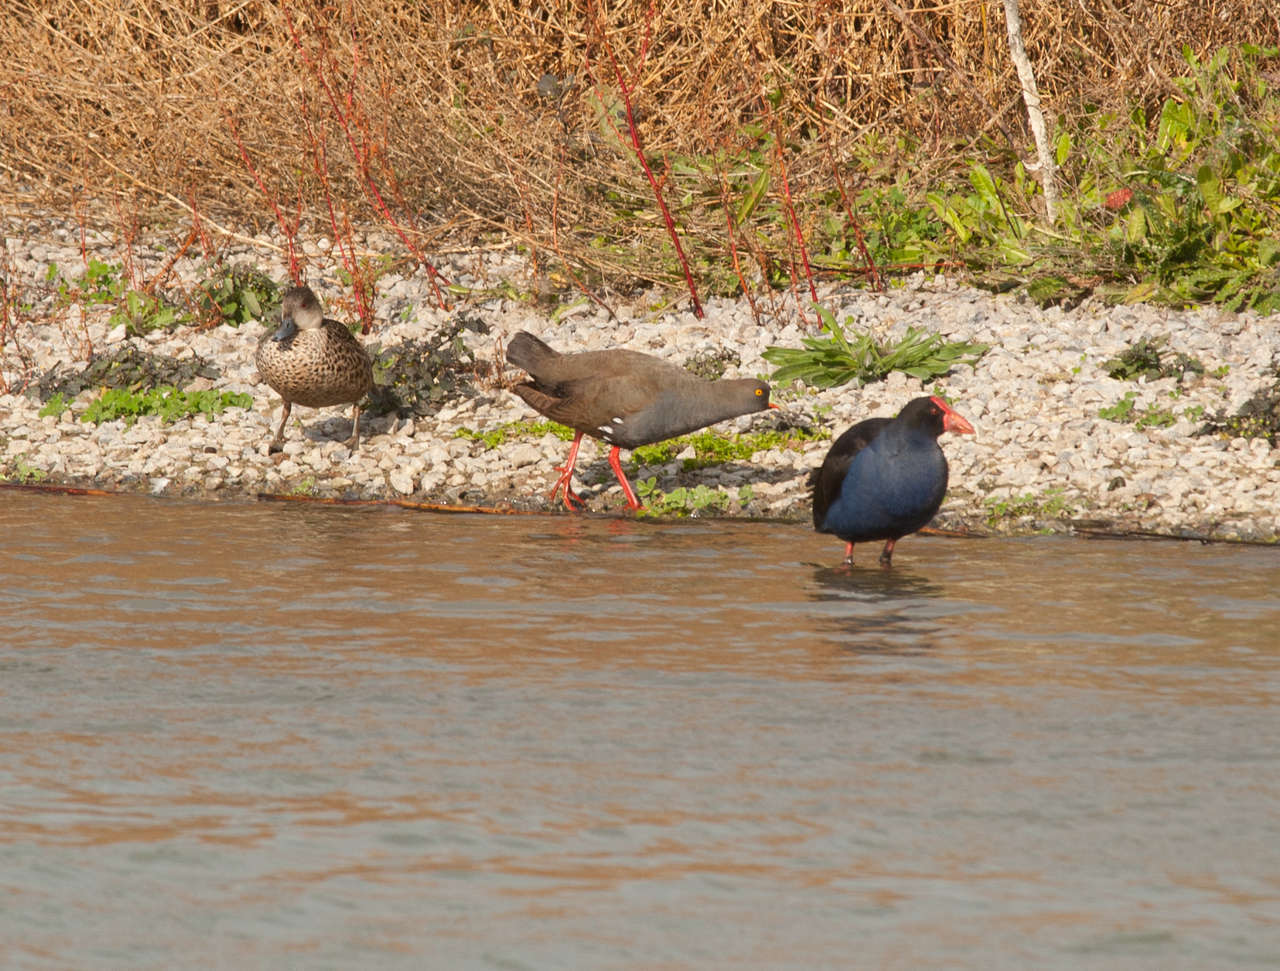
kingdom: Animalia
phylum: Chordata
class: Aves
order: Gruiformes
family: Rallidae
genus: Porphyrio
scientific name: Porphyrio melanotus
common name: Australasian swamphen
